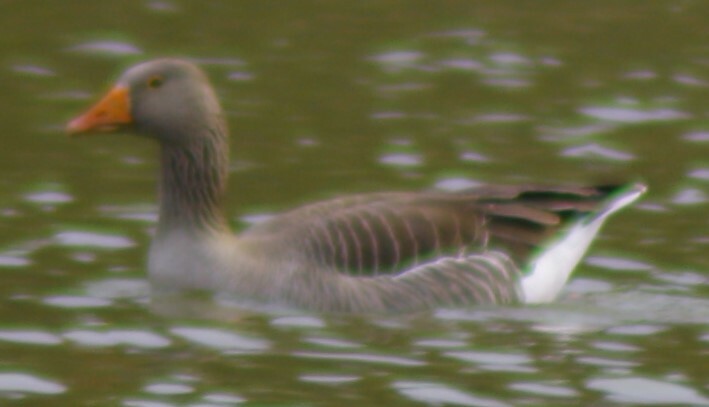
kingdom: Animalia
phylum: Chordata
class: Aves
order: Anseriformes
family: Anatidae
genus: Anser
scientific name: Anser anser
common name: Greylag goose
